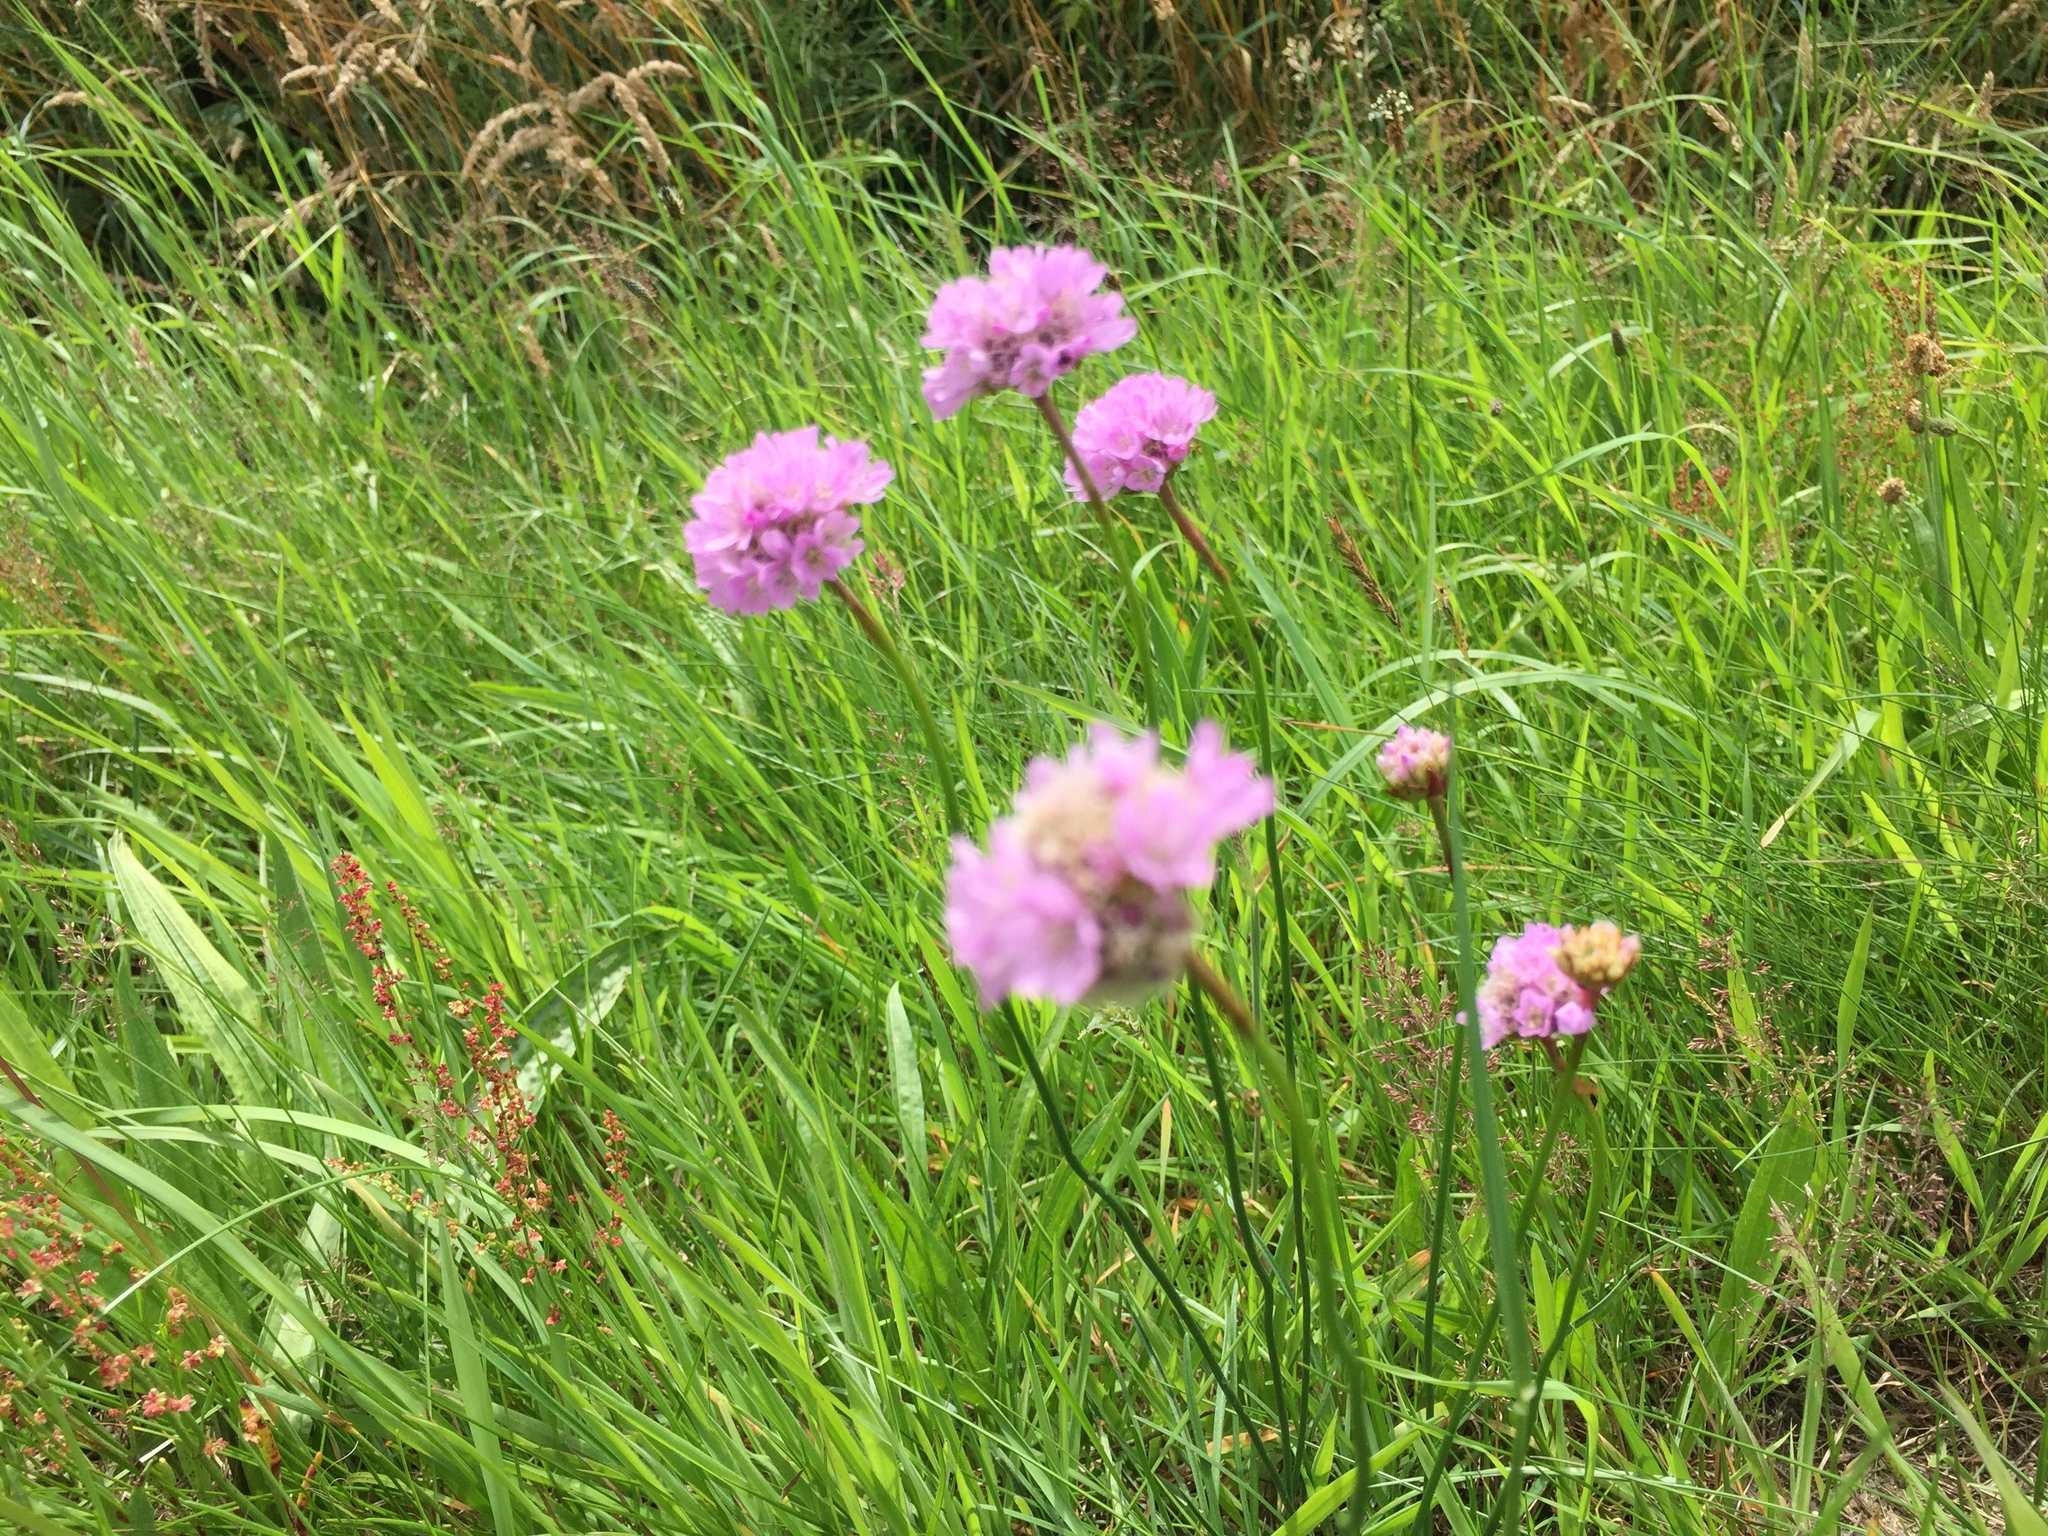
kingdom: Plantae
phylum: Tracheophyta
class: Magnoliopsida
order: Caryophyllales
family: Plumbaginaceae
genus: Armeria
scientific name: Armeria maritima
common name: Thrift
